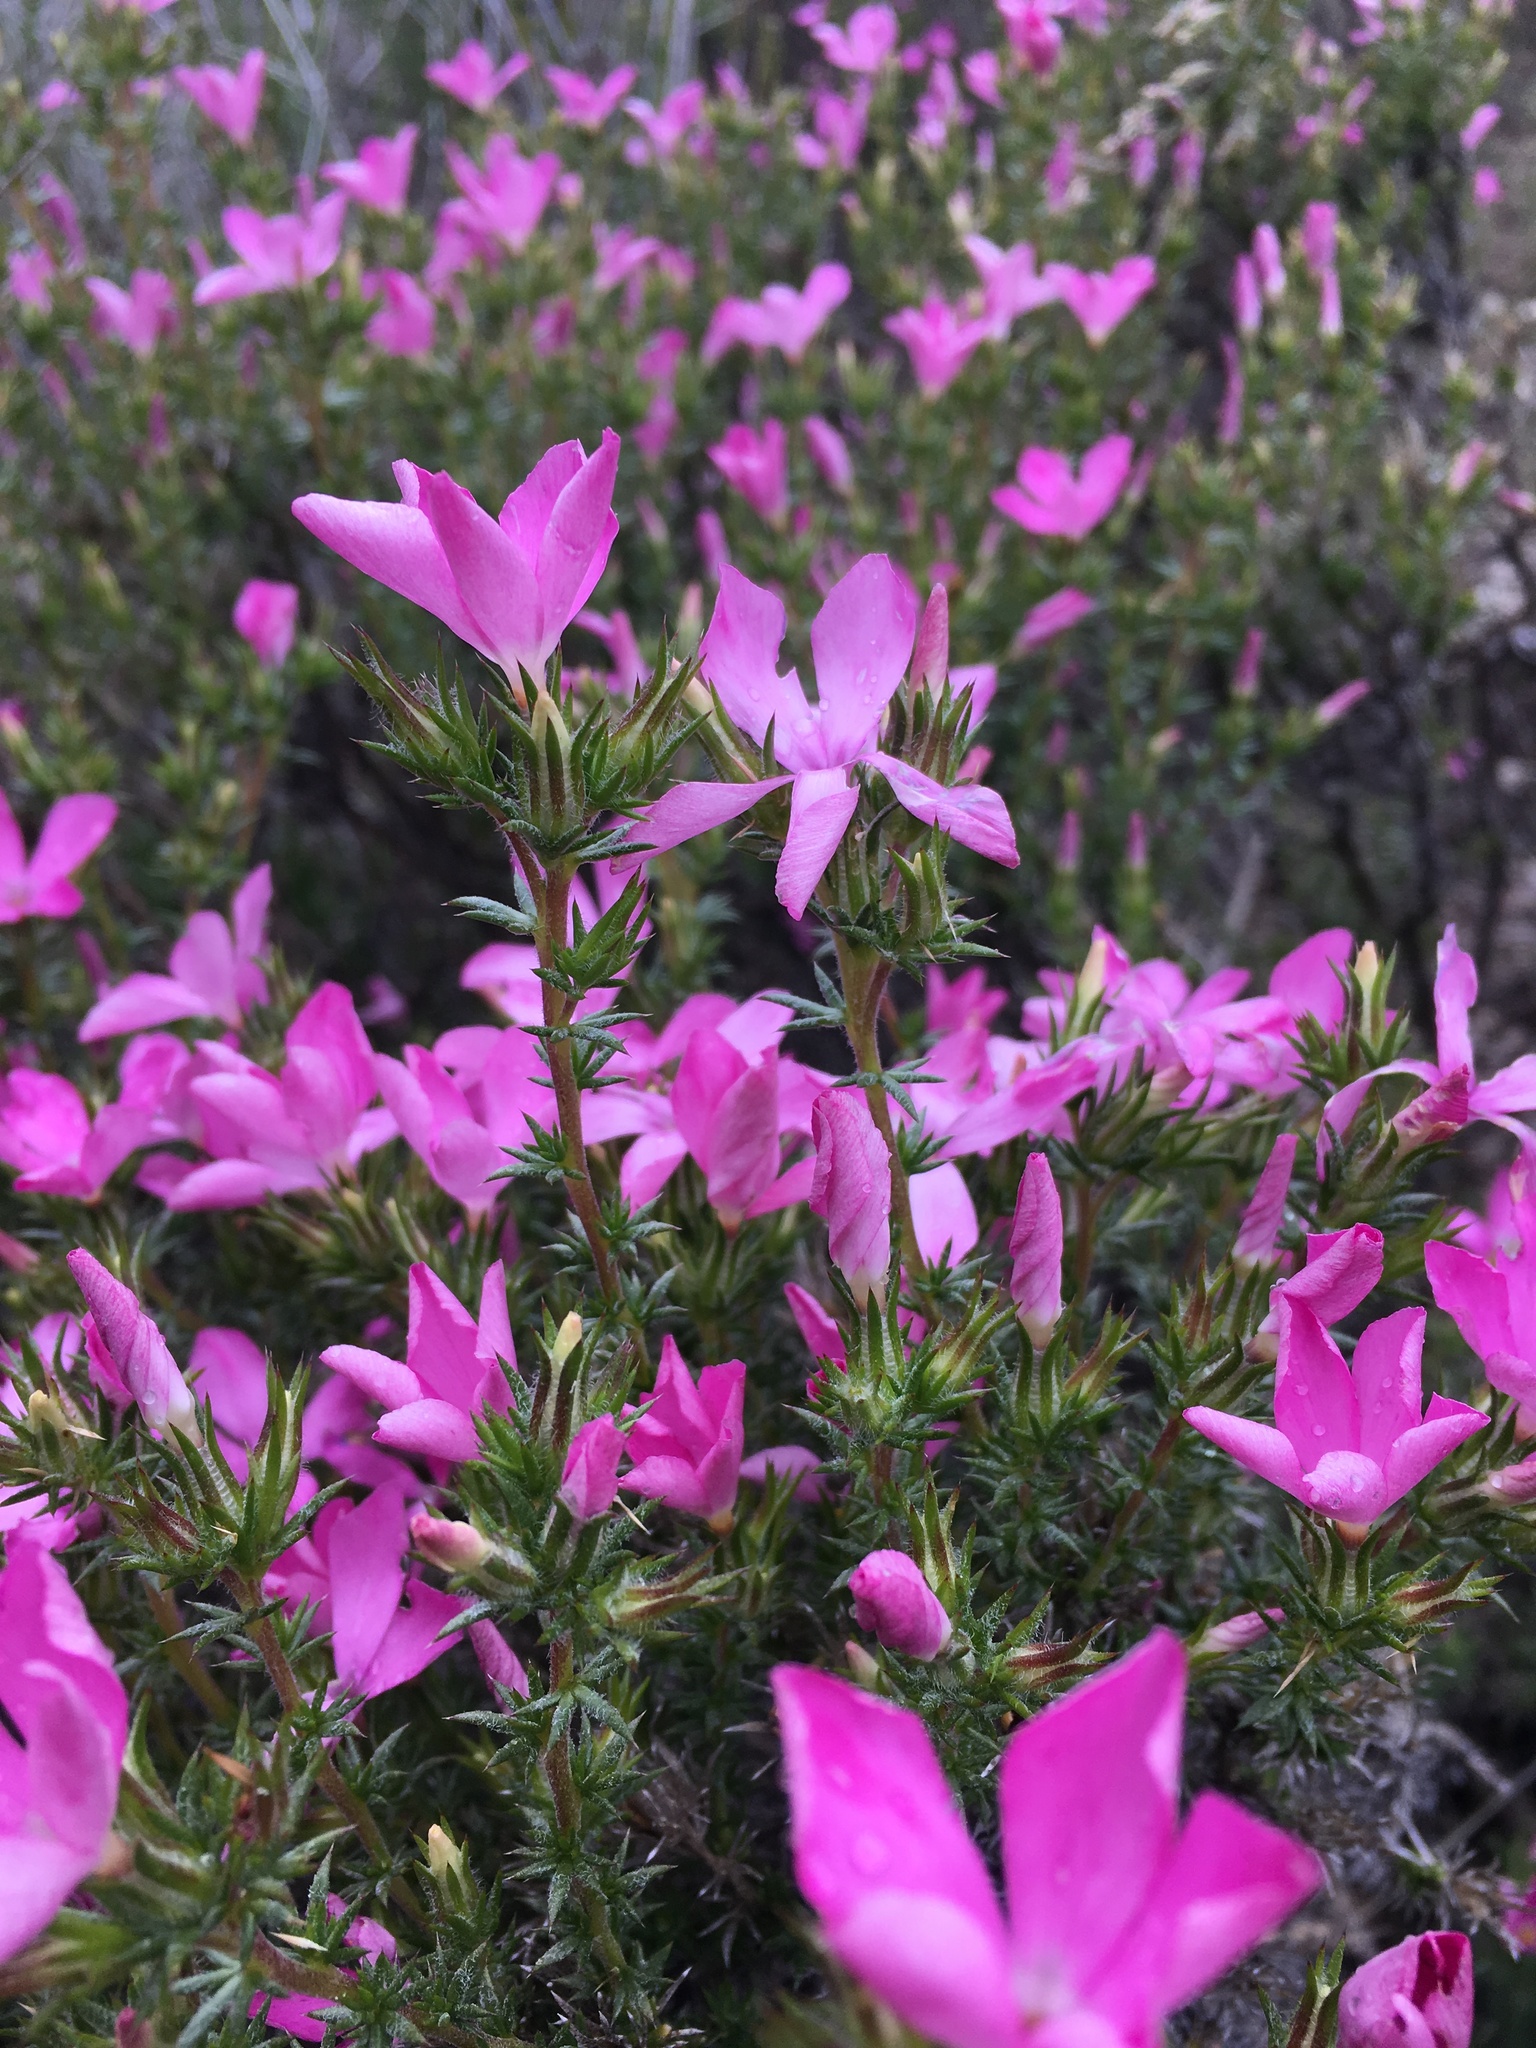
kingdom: Plantae
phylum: Tracheophyta
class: Magnoliopsida
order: Ericales
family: Polemoniaceae
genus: Linanthus
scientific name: Linanthus californicus
